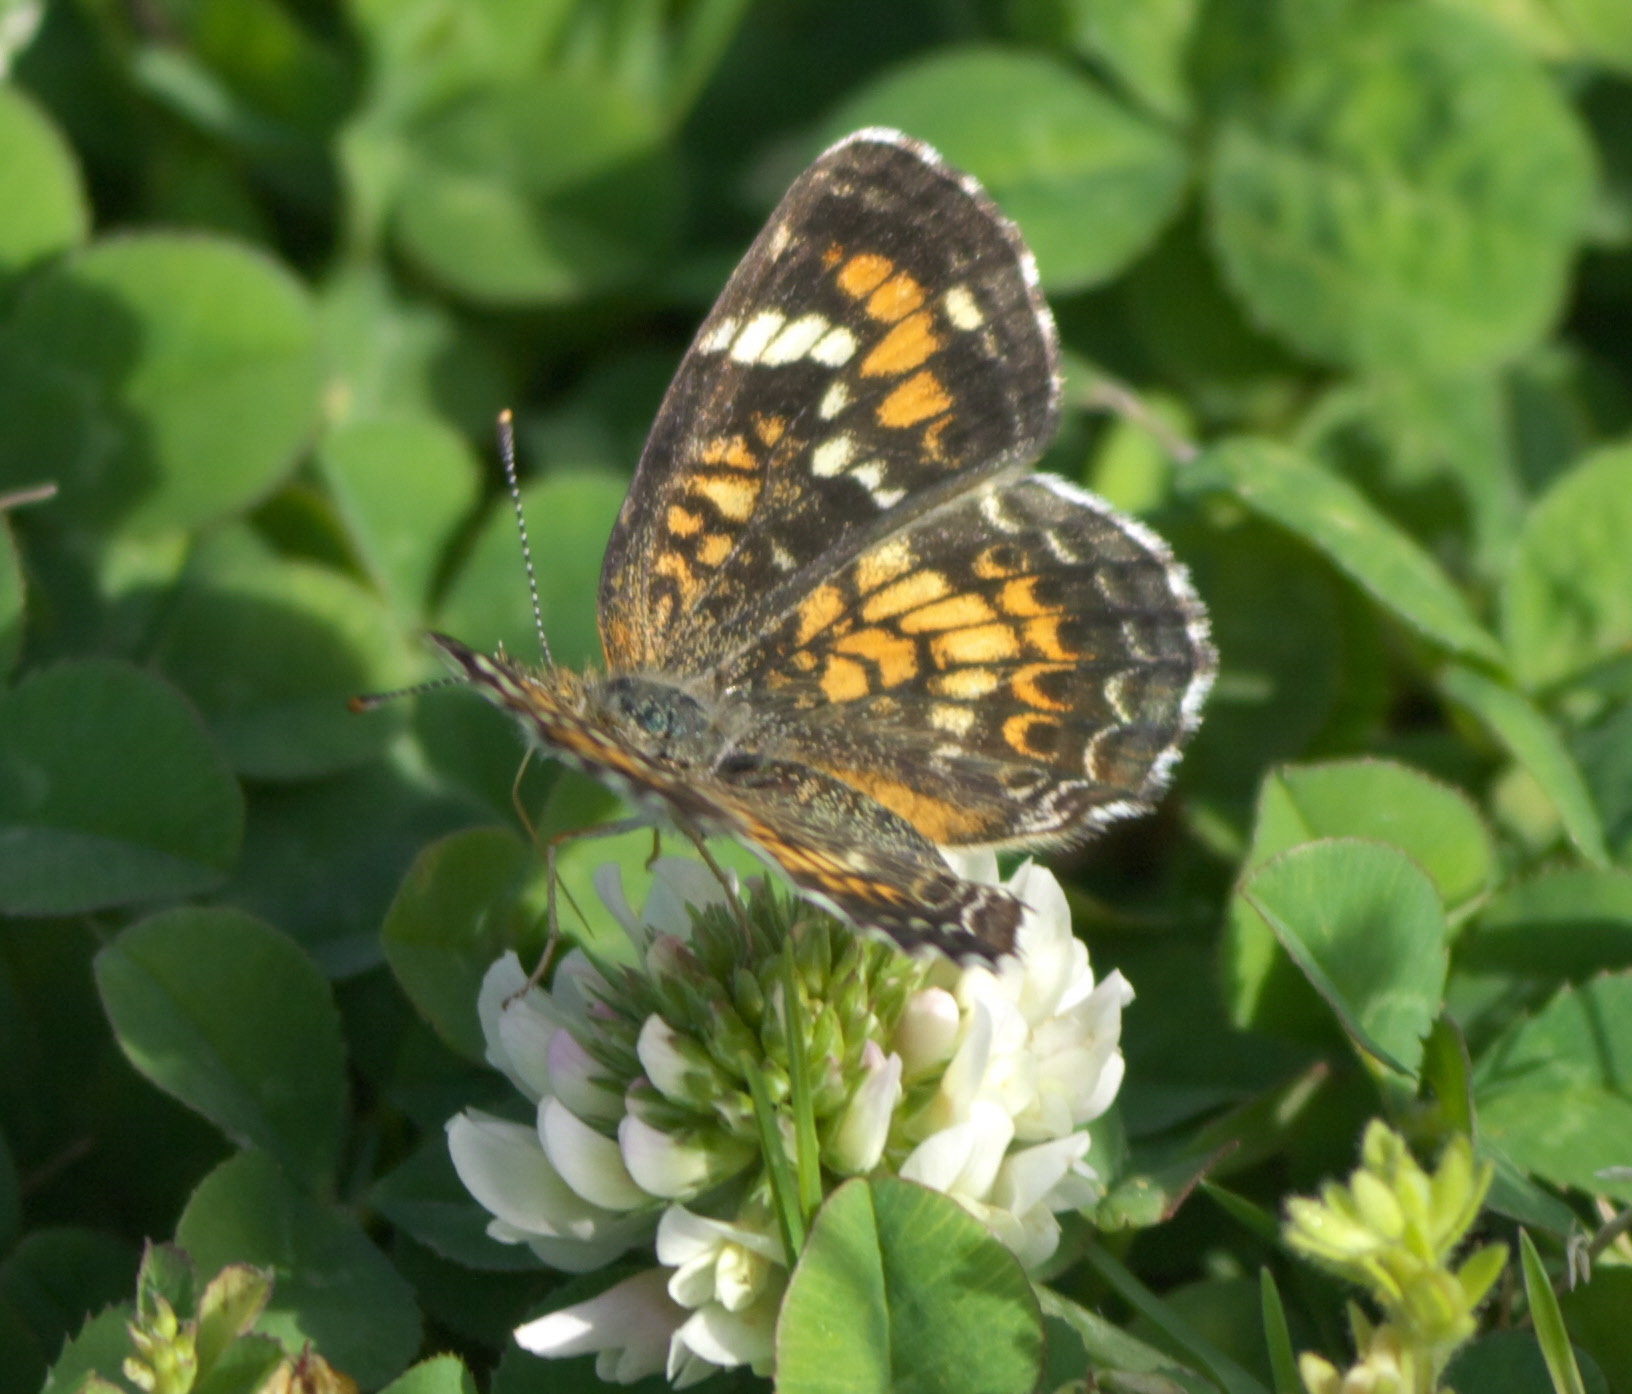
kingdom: Animalia
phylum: Arthropoda
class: Insecta
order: Lepidoptera
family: Nymphalidae
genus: Phyciodes
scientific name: Phyciodes phaon
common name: Phaon crescent
